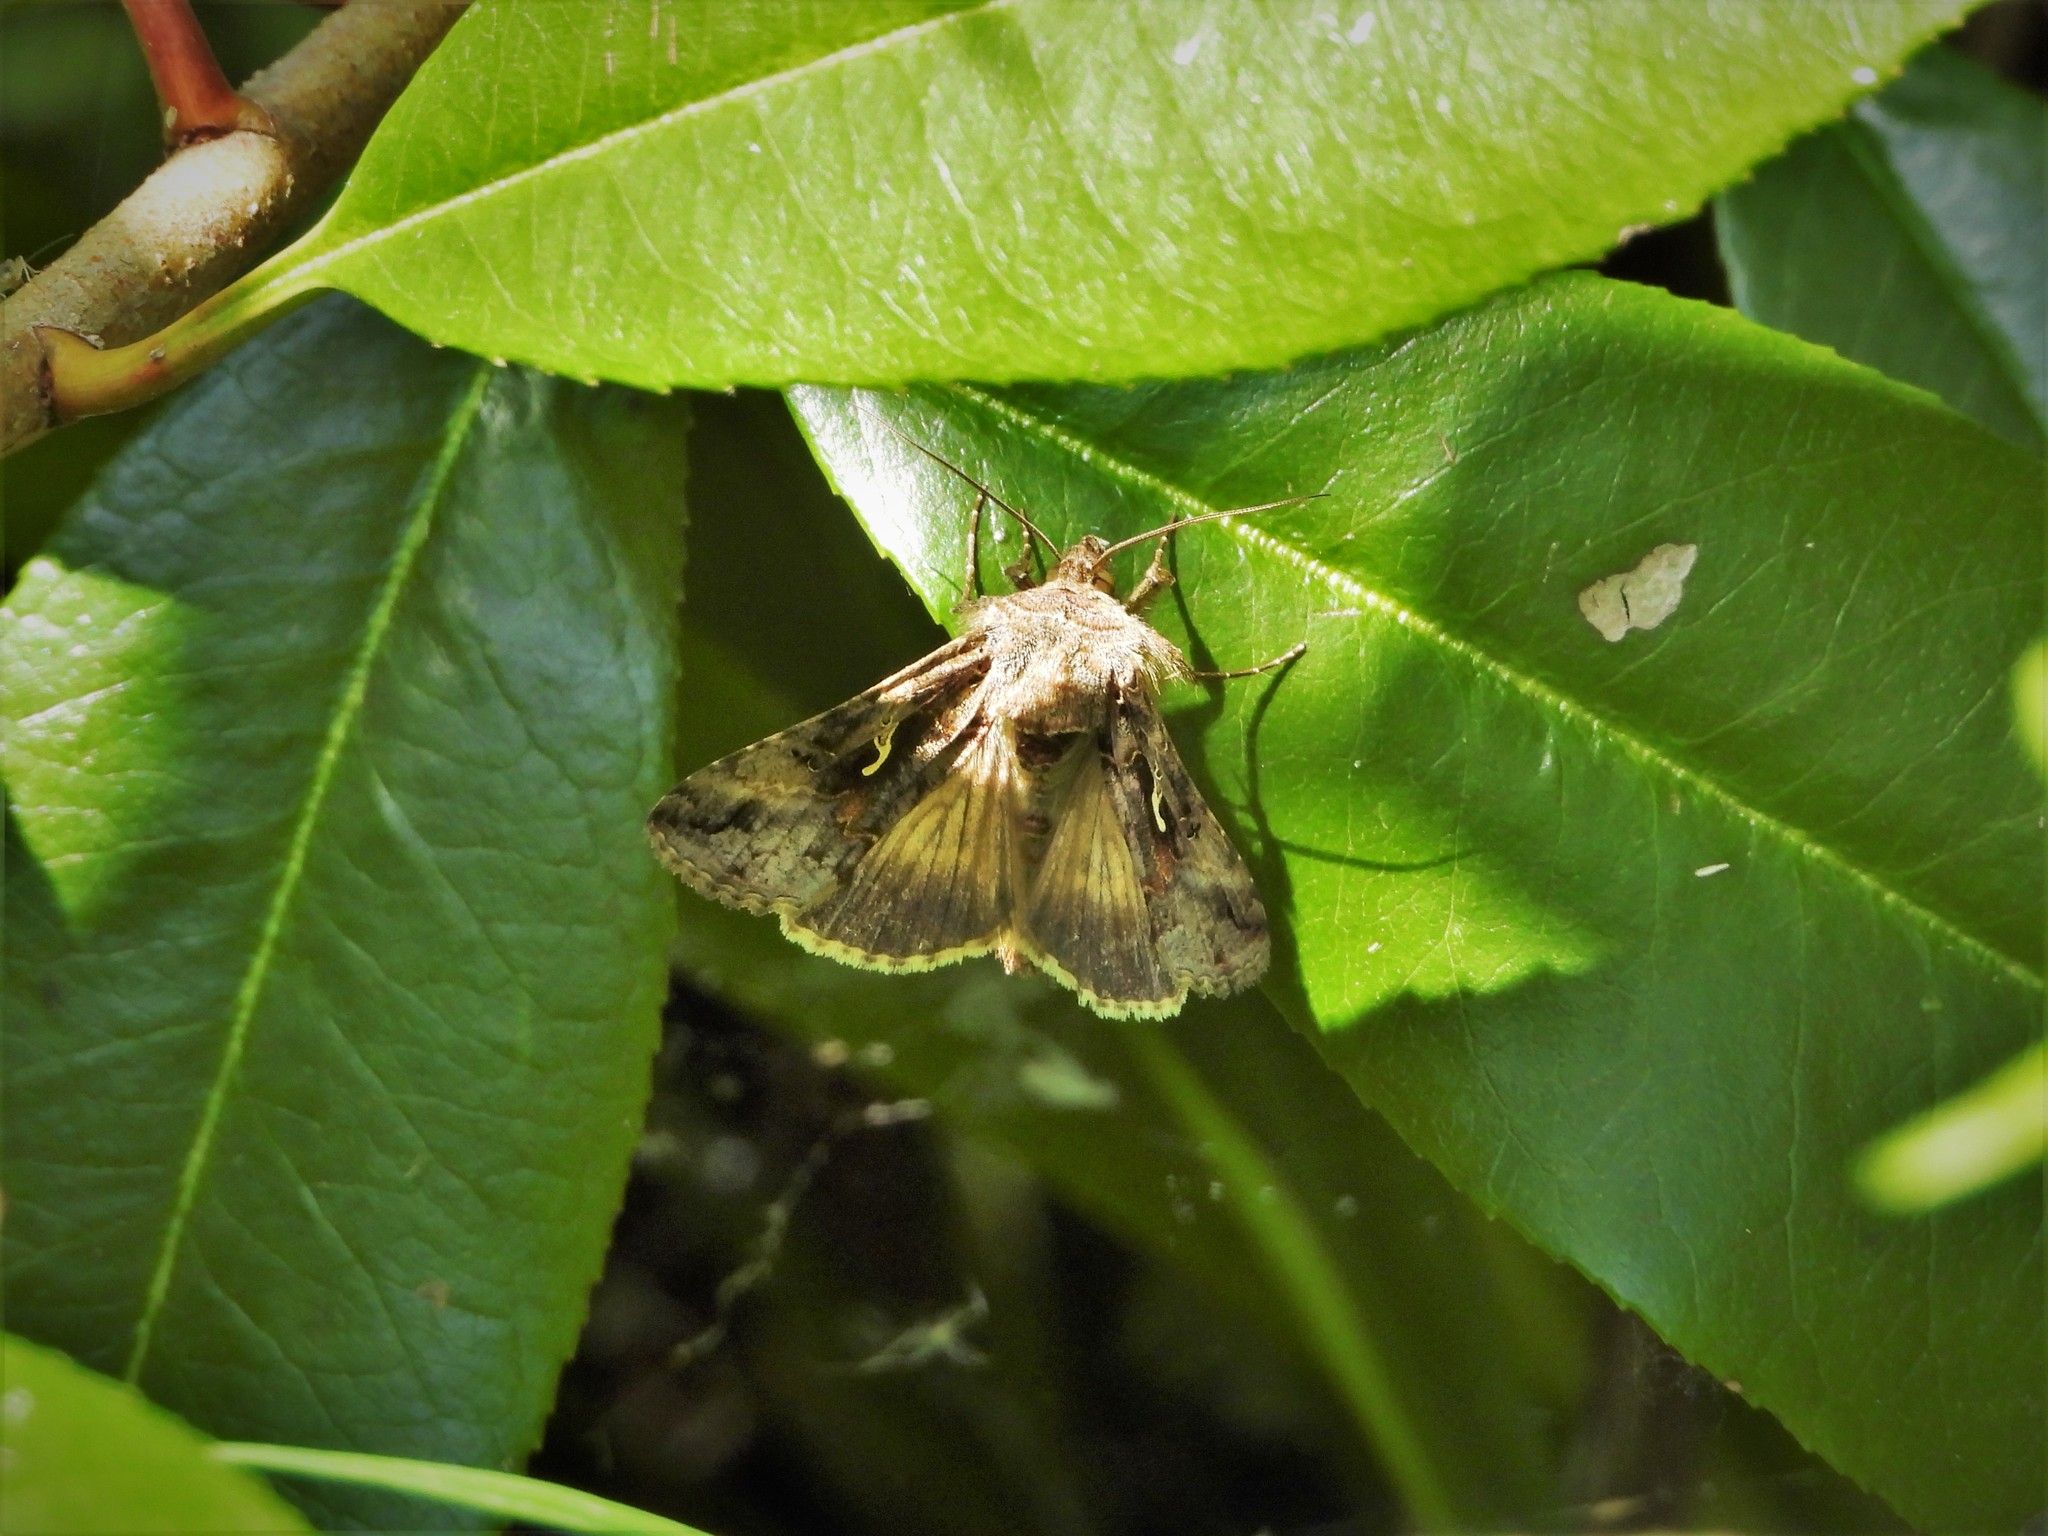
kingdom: Animalia
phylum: Arthropoda
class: Insecta
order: Lepidoptera
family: Noctuidae
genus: Autographa
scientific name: Autographa gamma
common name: Silver y
